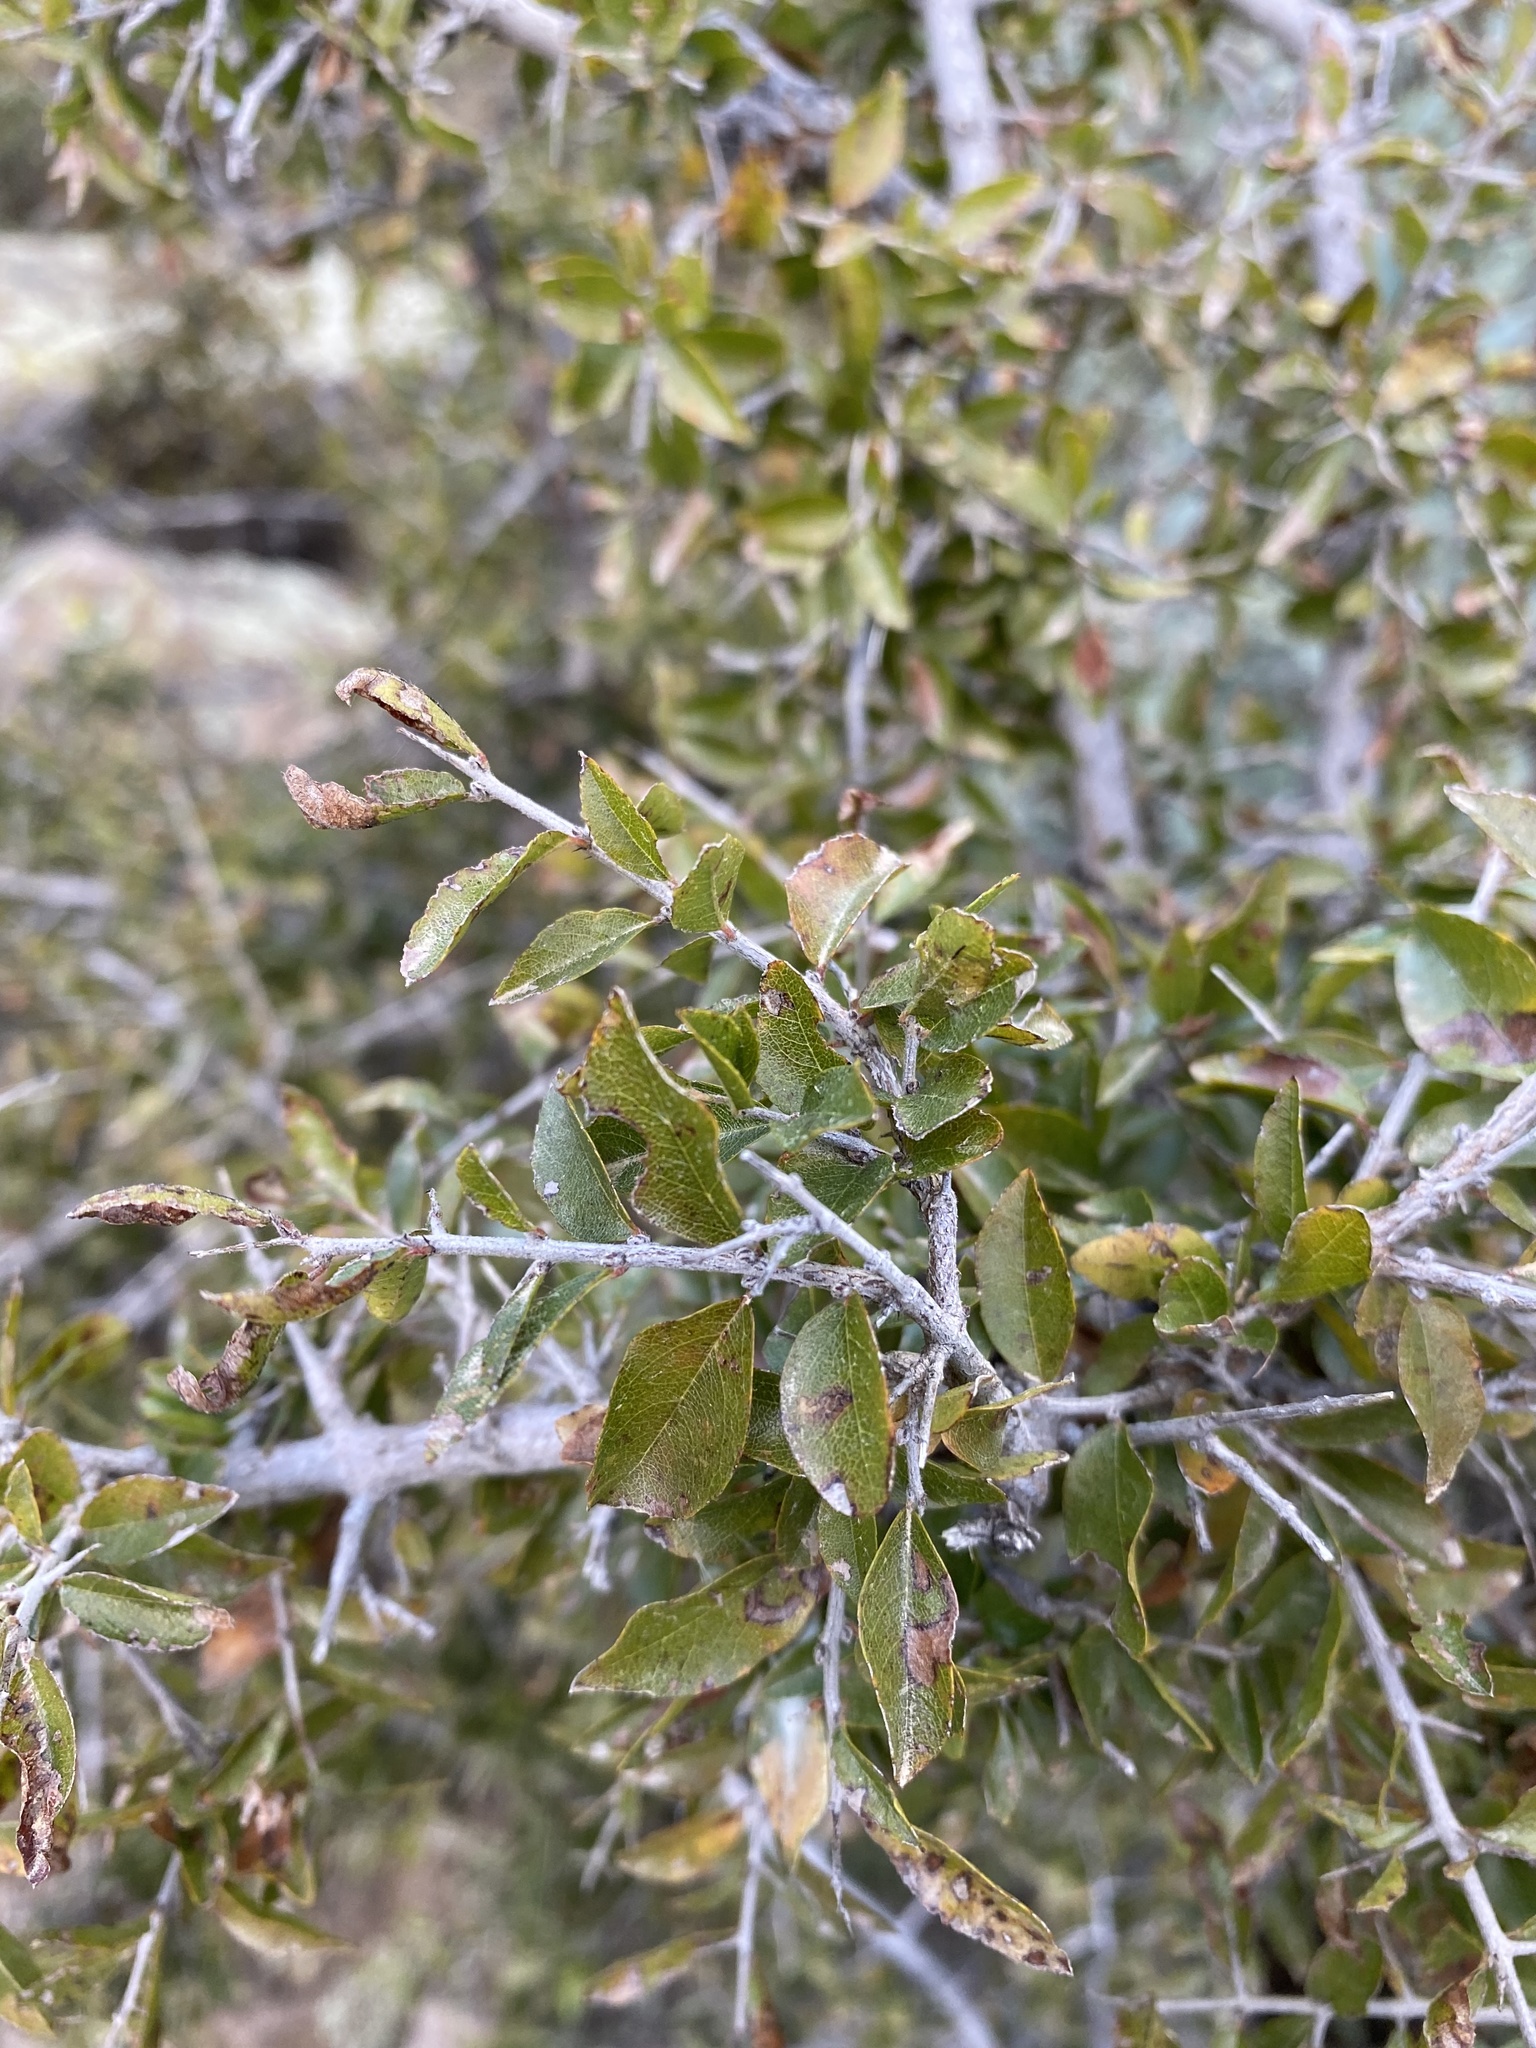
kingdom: Plantae
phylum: Tracheophyta
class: Magnoliopsida
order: Rosales
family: Rhamnaceae
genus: Sageretia
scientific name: Sageretia wrightii
